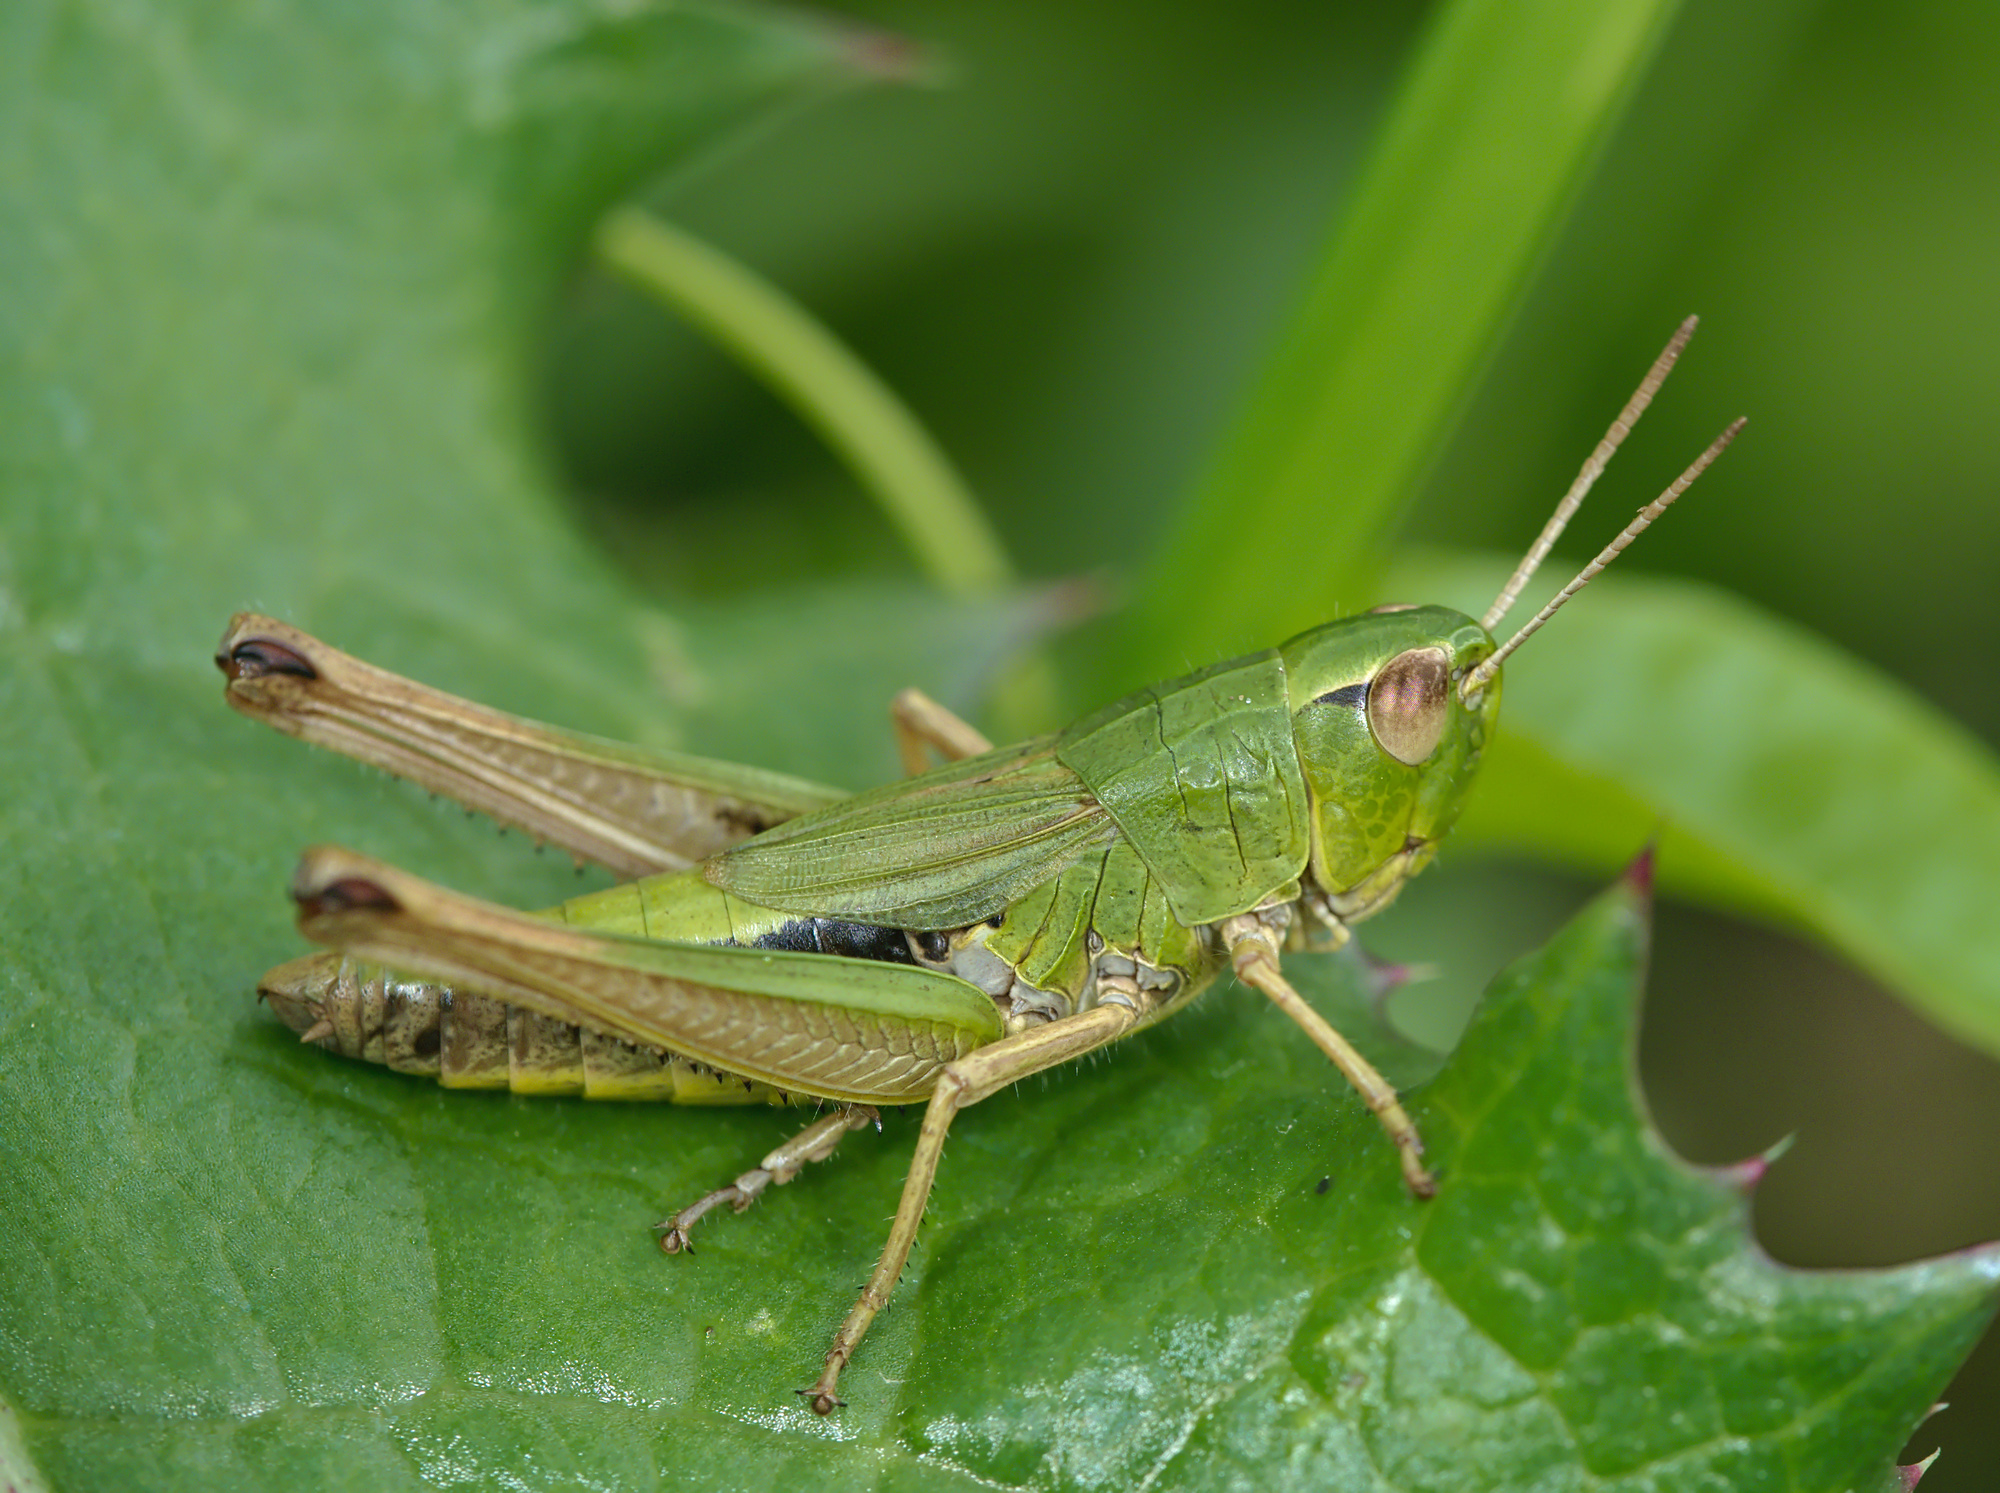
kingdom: Animalia
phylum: Arthropoda
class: Insecta
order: Orthoptera
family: Acrididae
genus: Pseudochorthippus
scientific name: Pseudochorthippus parallelus
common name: Meadow grasshopper
